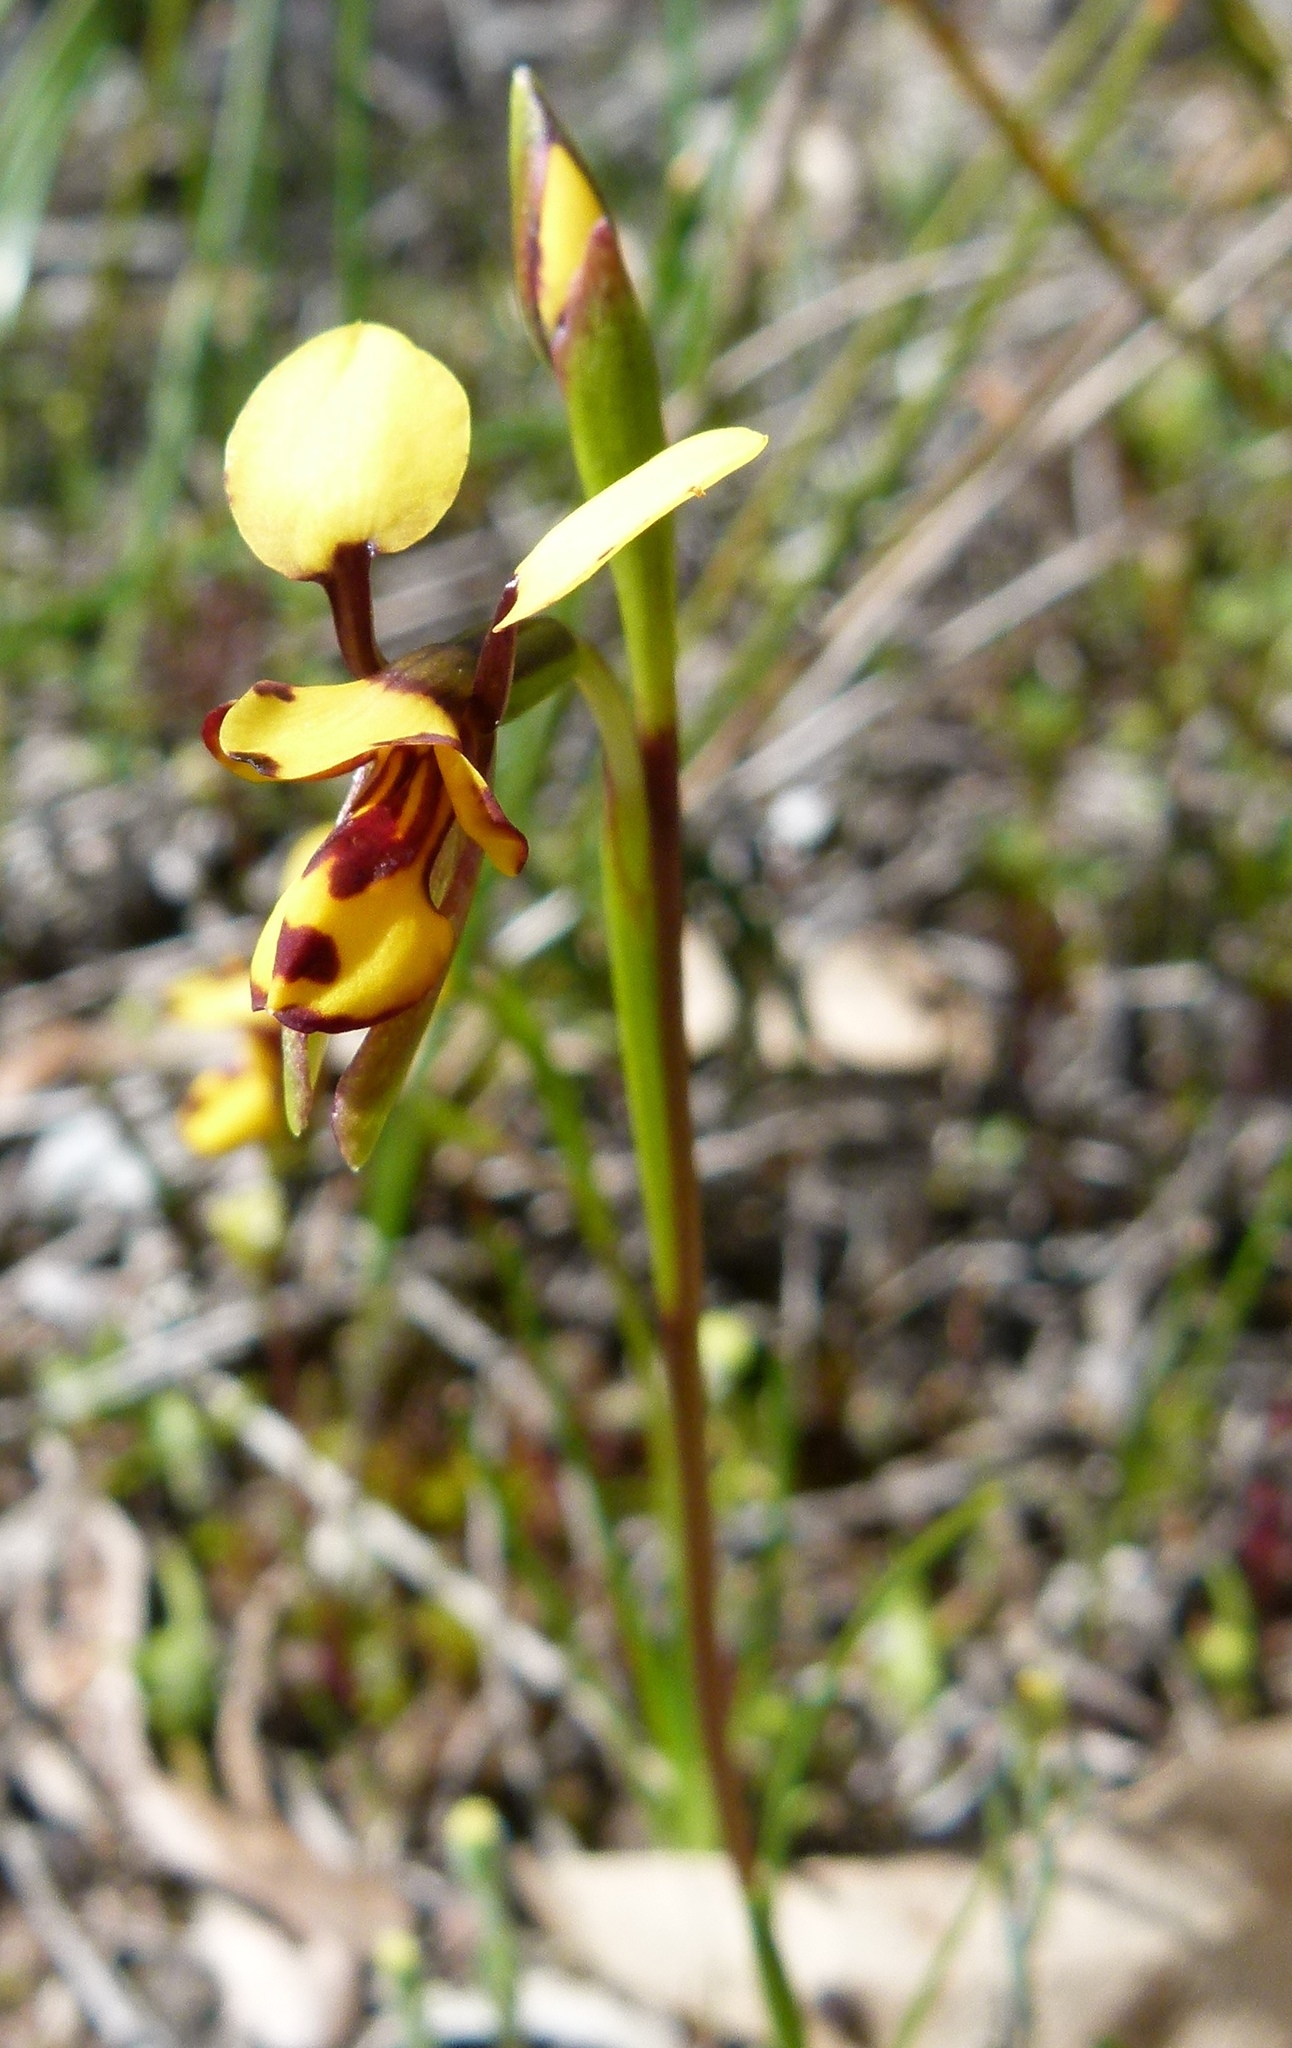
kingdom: Plantae
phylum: Tracheophyta
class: Liliopsida
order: Asparagales
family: Orchidaceae
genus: Diuris
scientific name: Diuris laxiflora
